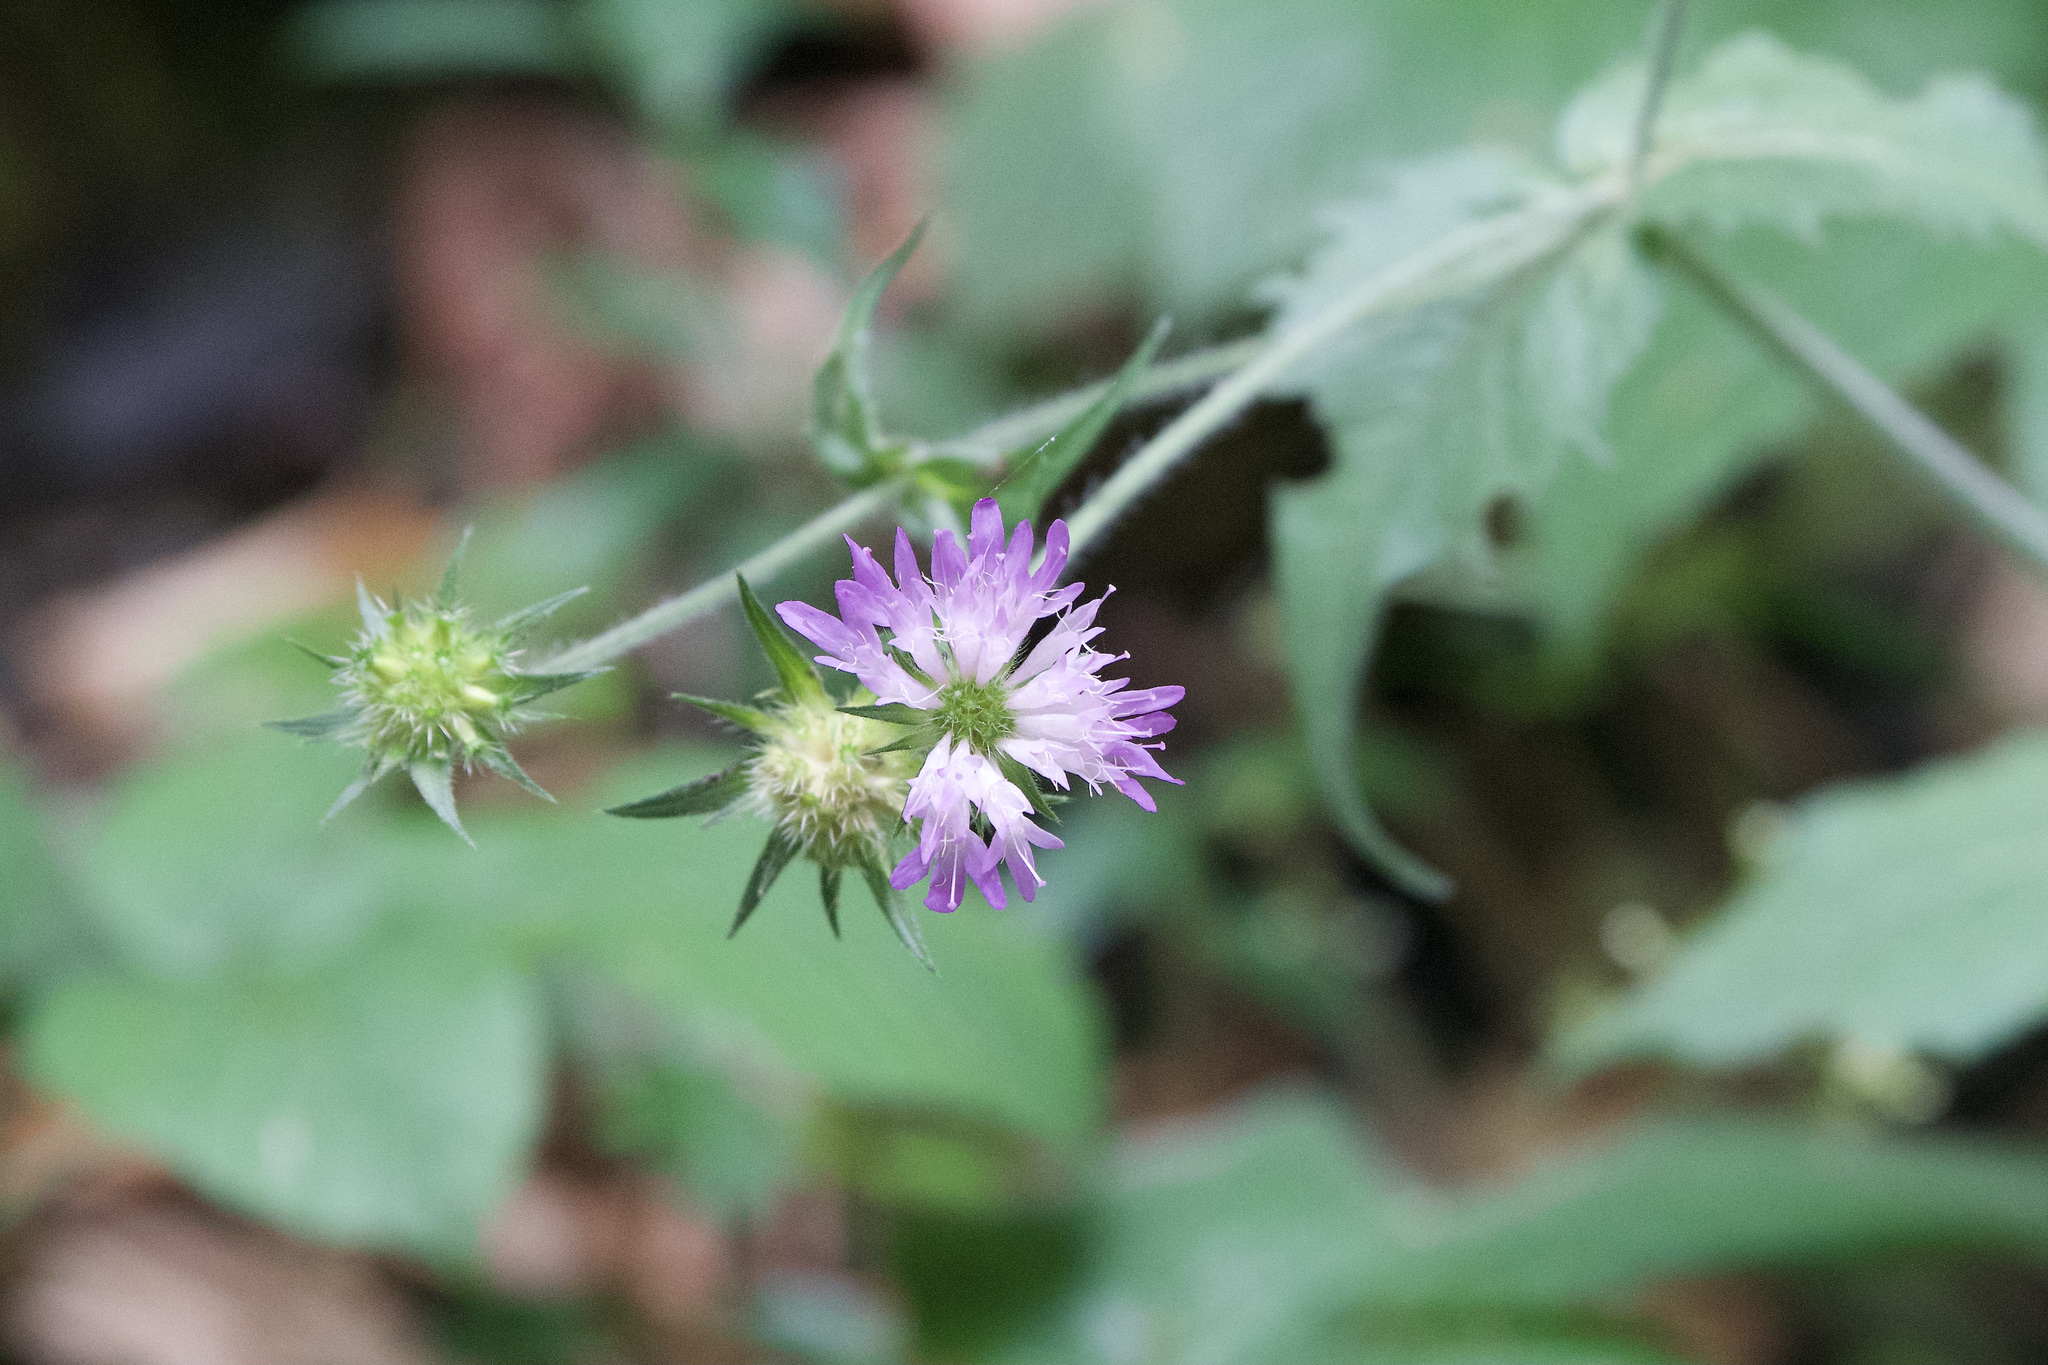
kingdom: Plantae
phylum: Tracheophyta
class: Magnoliopsida
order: Dipsacales
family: Caprifoliaceae
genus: Knautia
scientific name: Knautia drymeia
